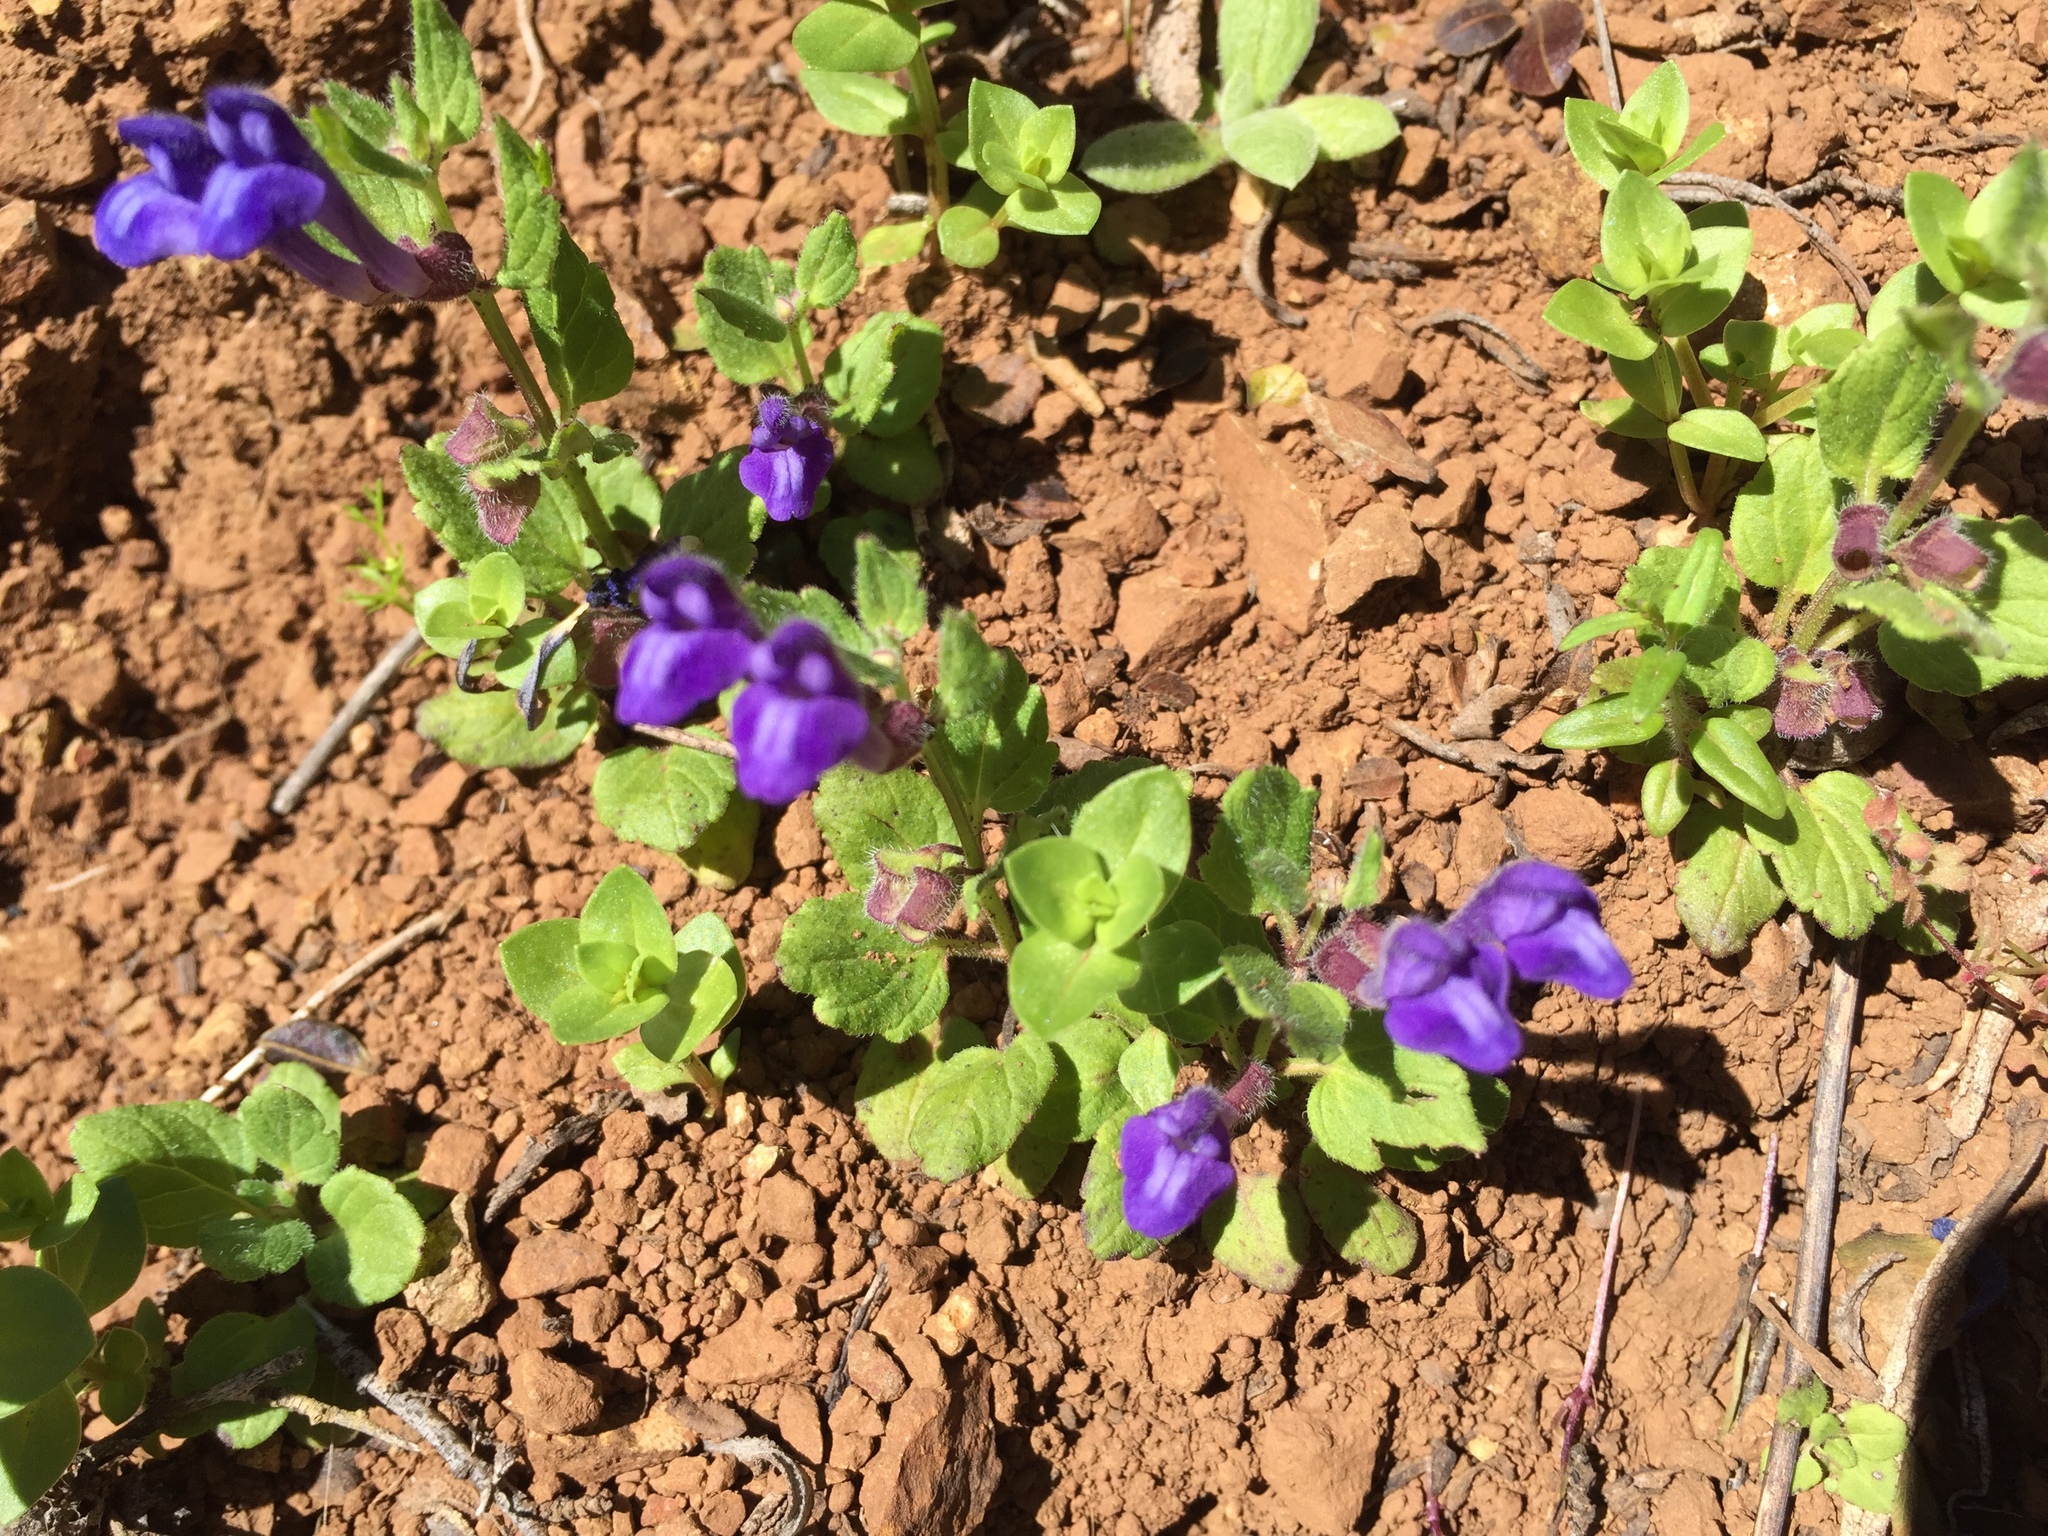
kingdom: Plantae
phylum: Tracheophyta
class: Magnoliopsida
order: Lamiales
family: Lamiaceae
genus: Scutellaria
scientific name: Scutellaria tuberosa
